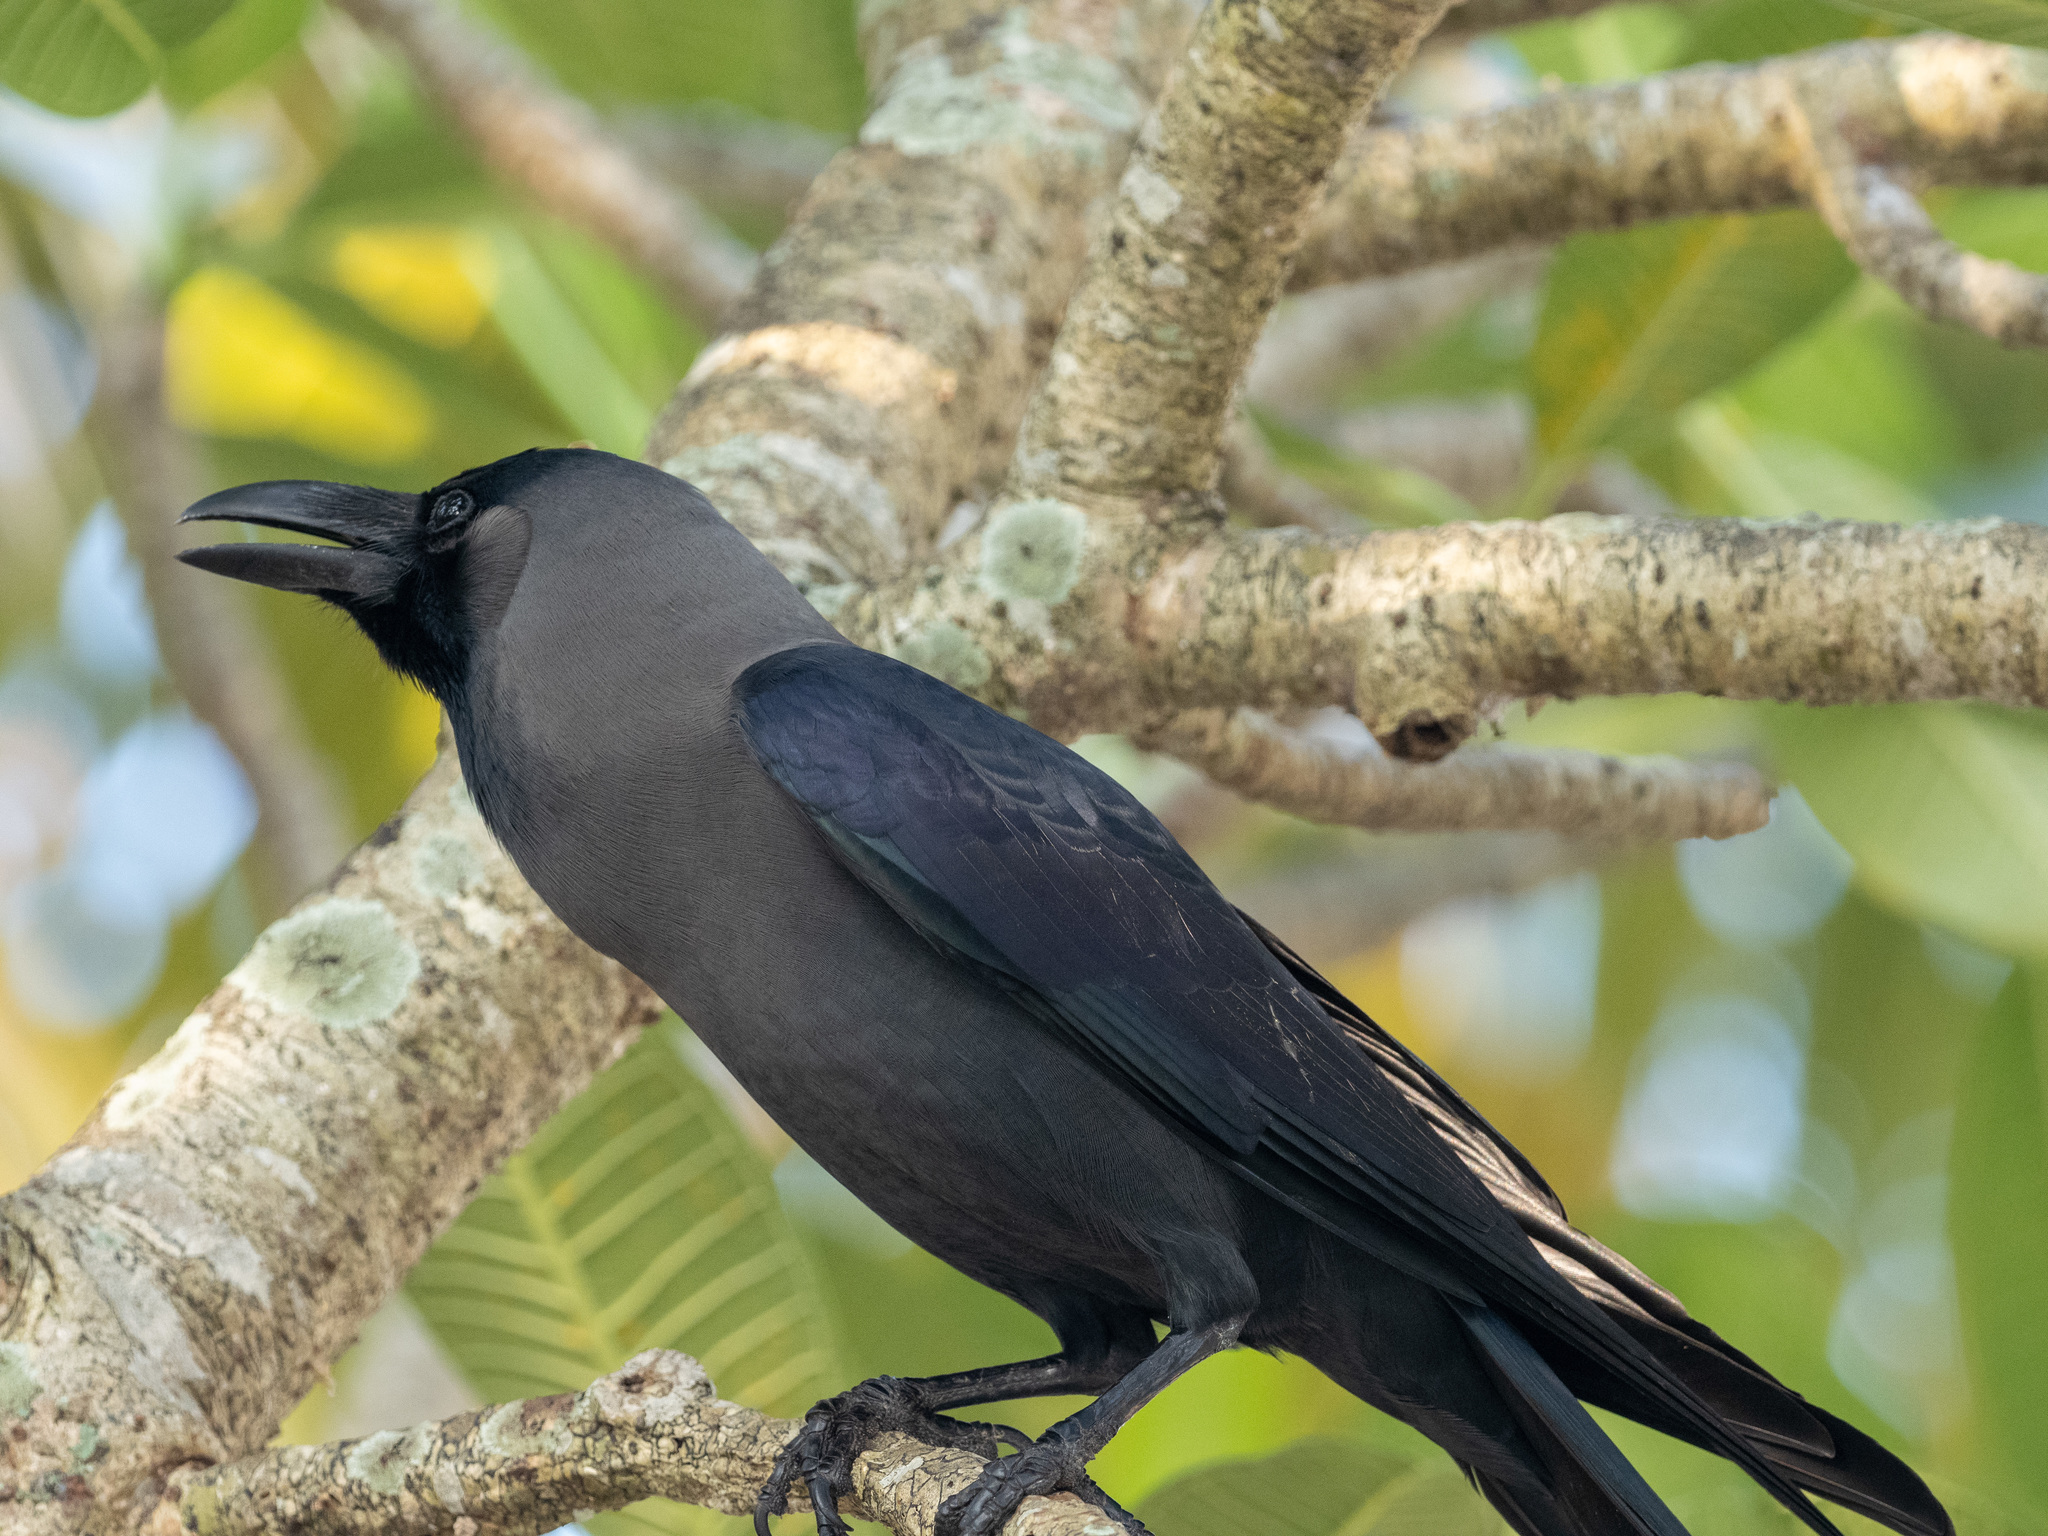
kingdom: Animalia
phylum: Chordata
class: Aves
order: Passeriformes
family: Corvidae
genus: Corvus
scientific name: Corvus splendens
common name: House crow
